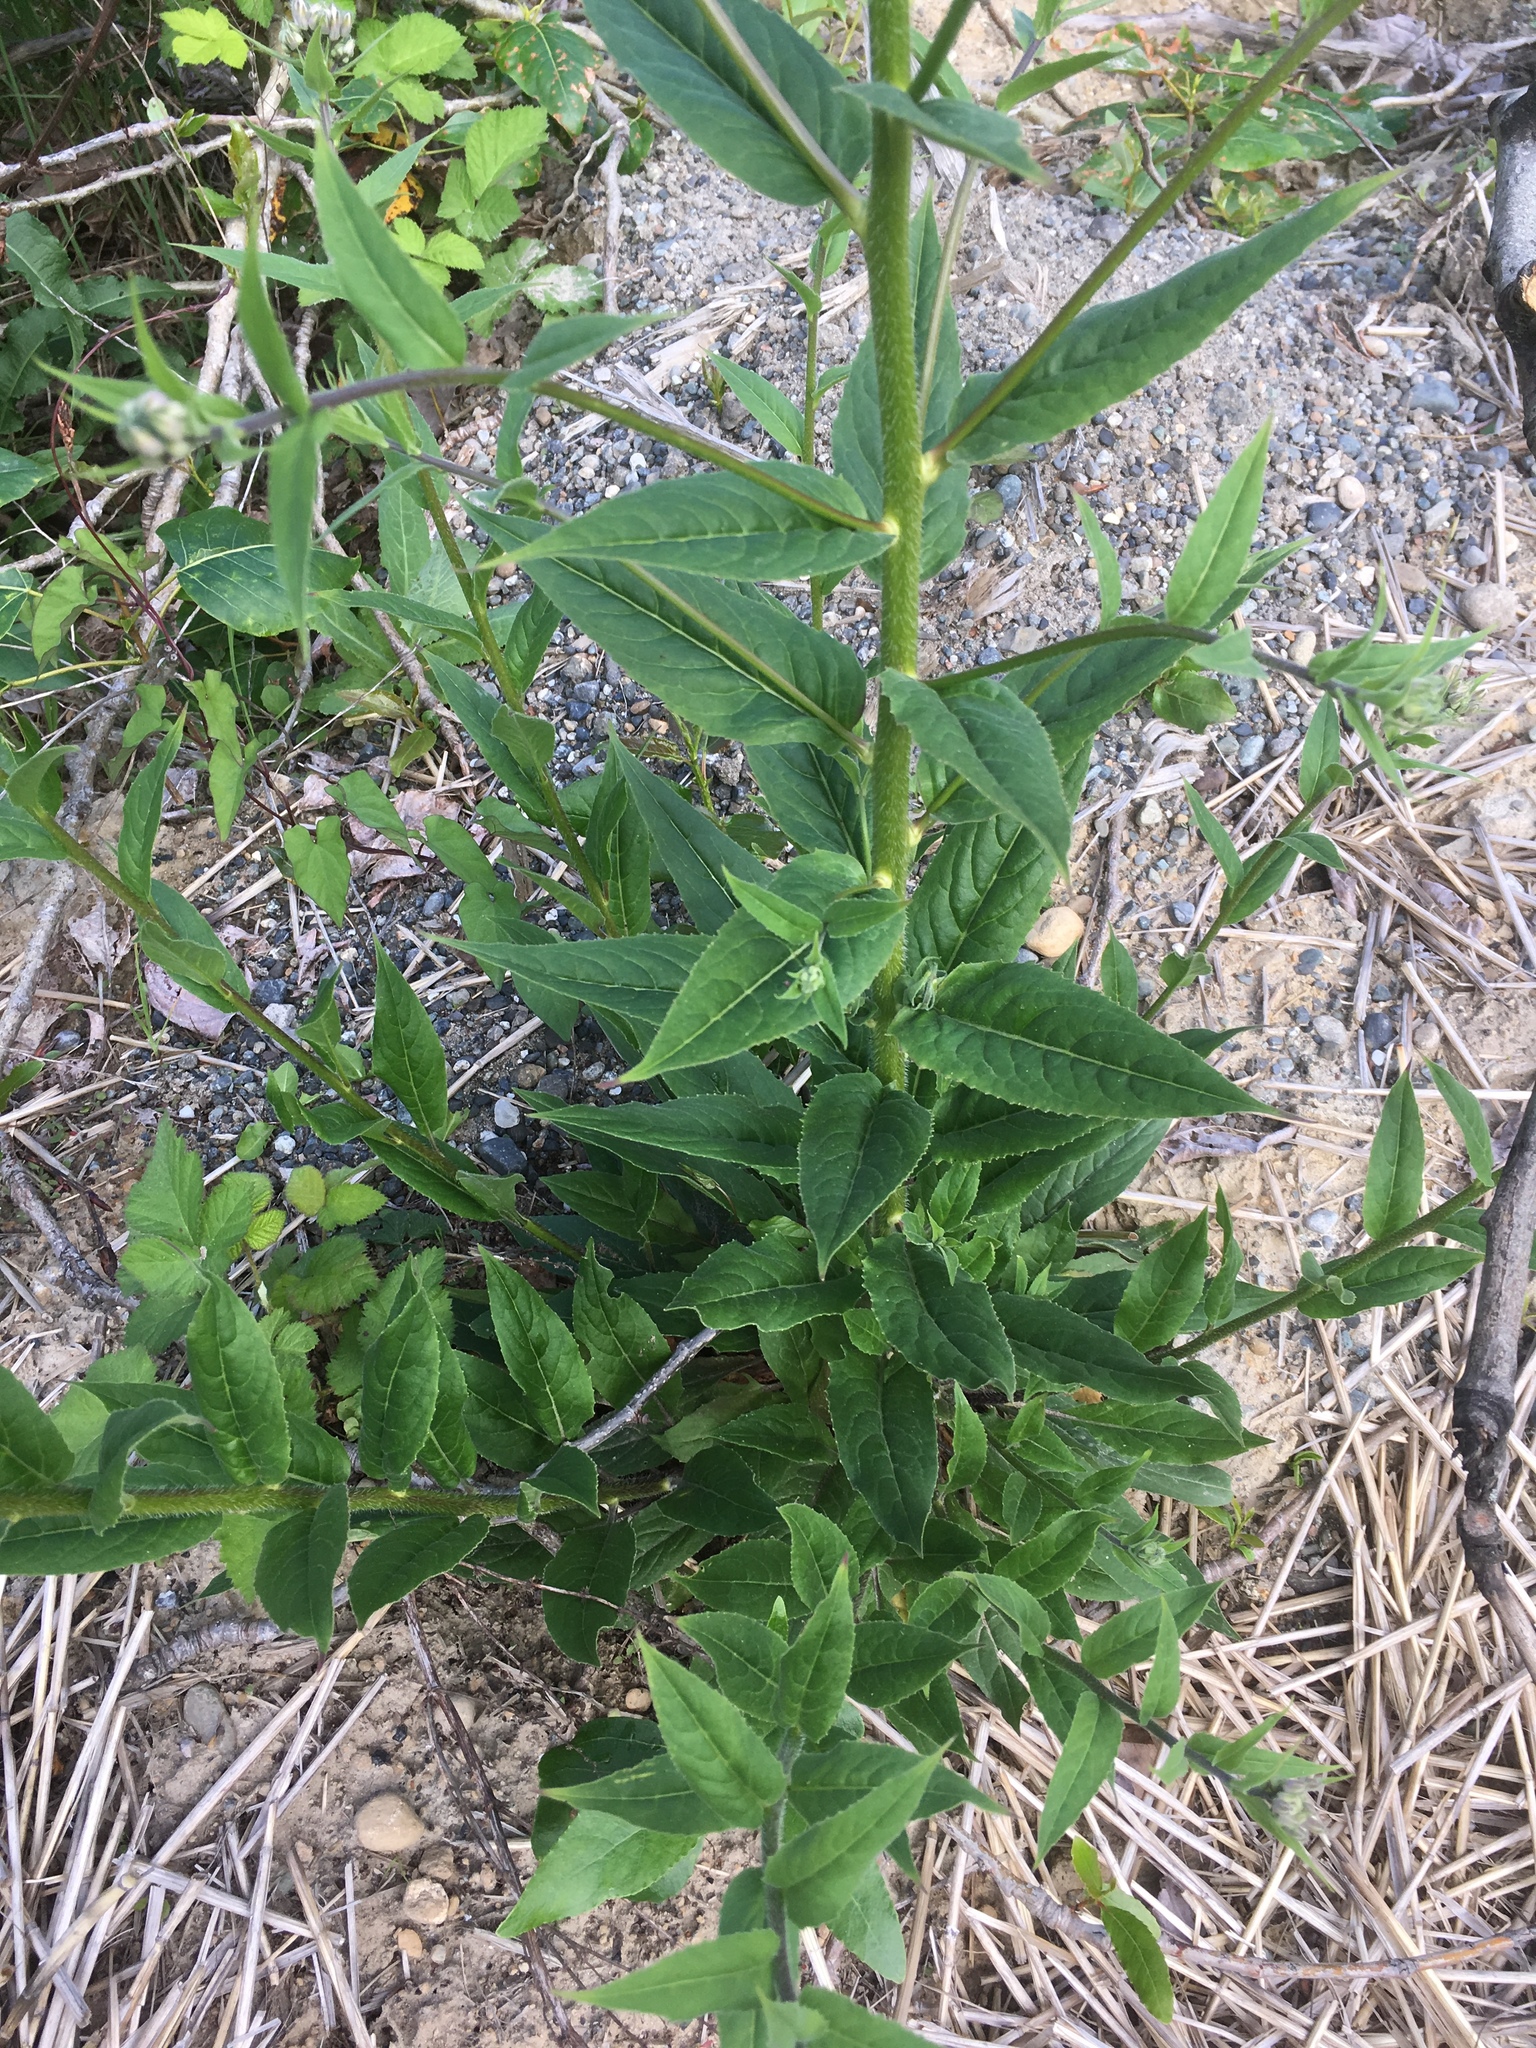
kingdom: Plantae
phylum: Tracheophyta
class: Magnoliopsida
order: Brassicales
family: Brassicaceae
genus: Hesperis
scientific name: Hesperis matronalis
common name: Dame's-violet
